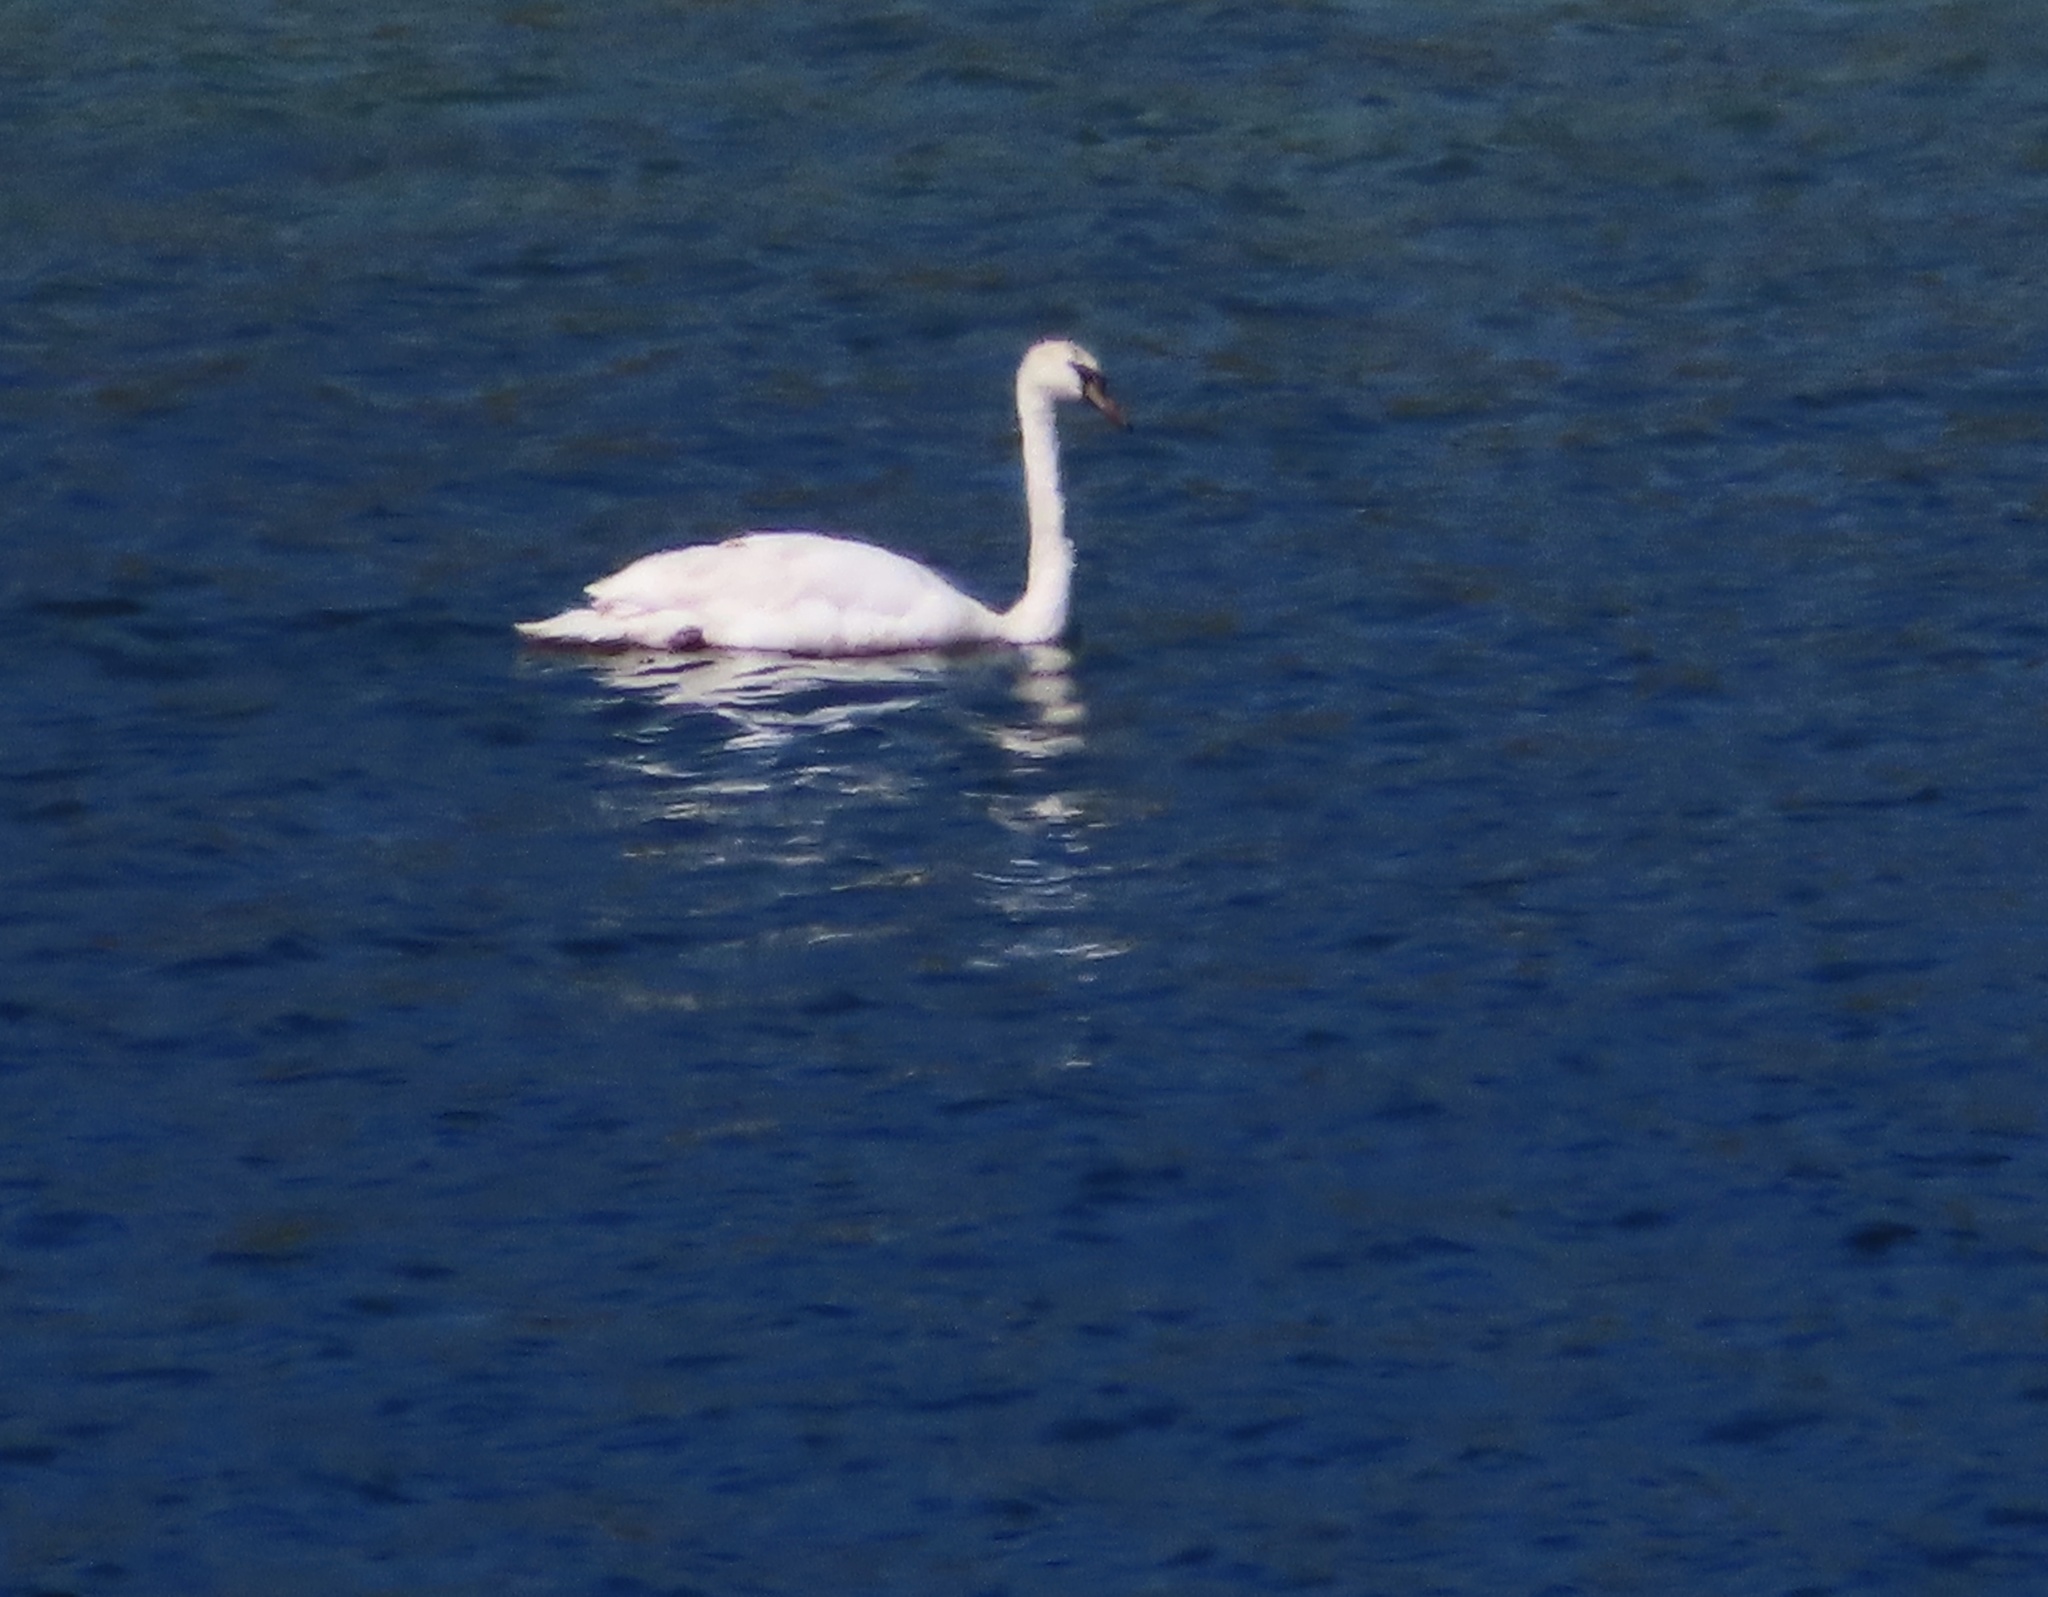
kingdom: Animalia
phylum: Chordata
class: Aves
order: Anseriformes
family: Anatidae
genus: Cygnus
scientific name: Cygnus olor
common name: Mute swan
